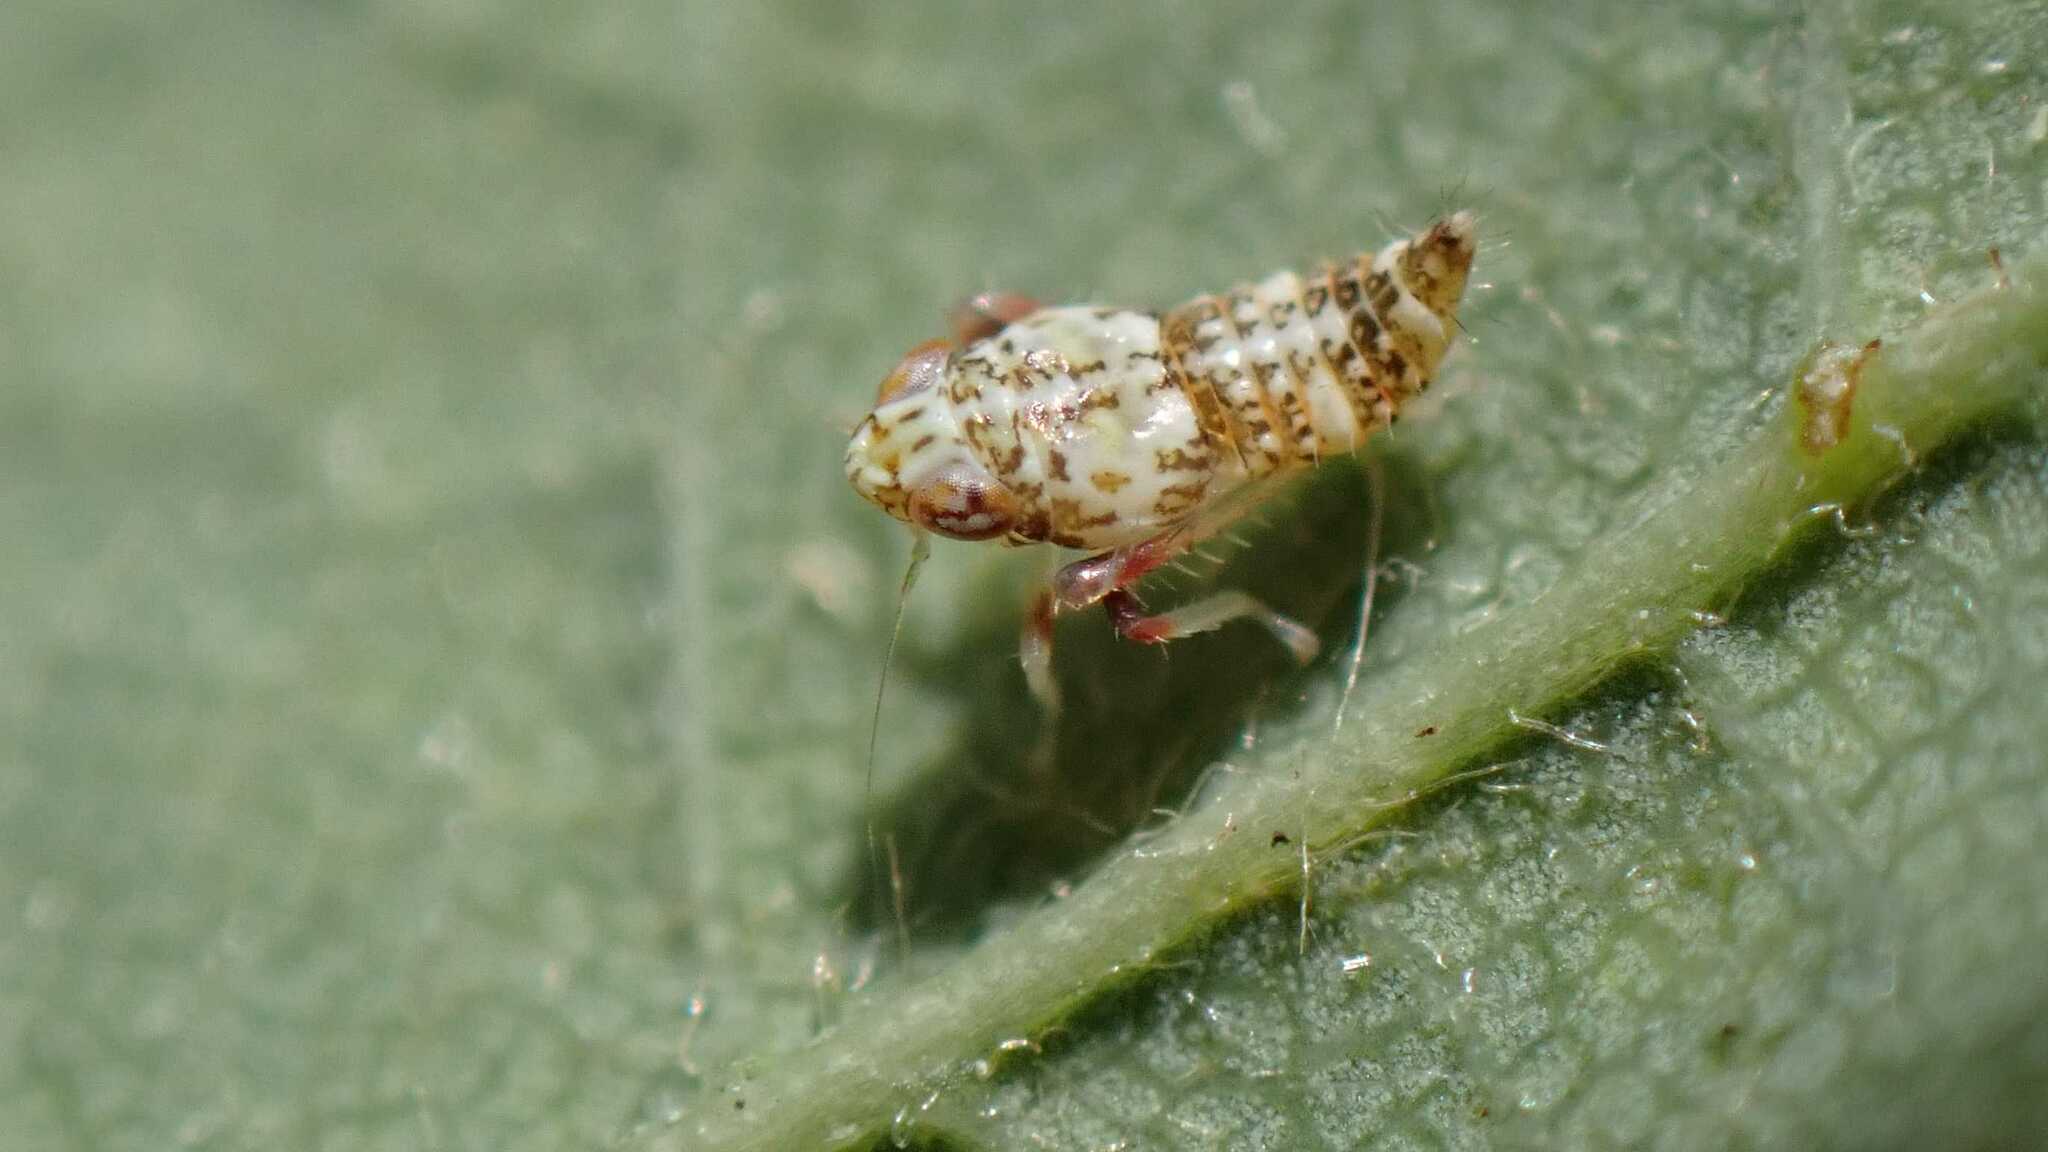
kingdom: Animalia
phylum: Arthropoda
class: Insecta
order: Hemiptera
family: Cicadellidae
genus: Orientus
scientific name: Orientus ishidae
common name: Japanese leafhopper
